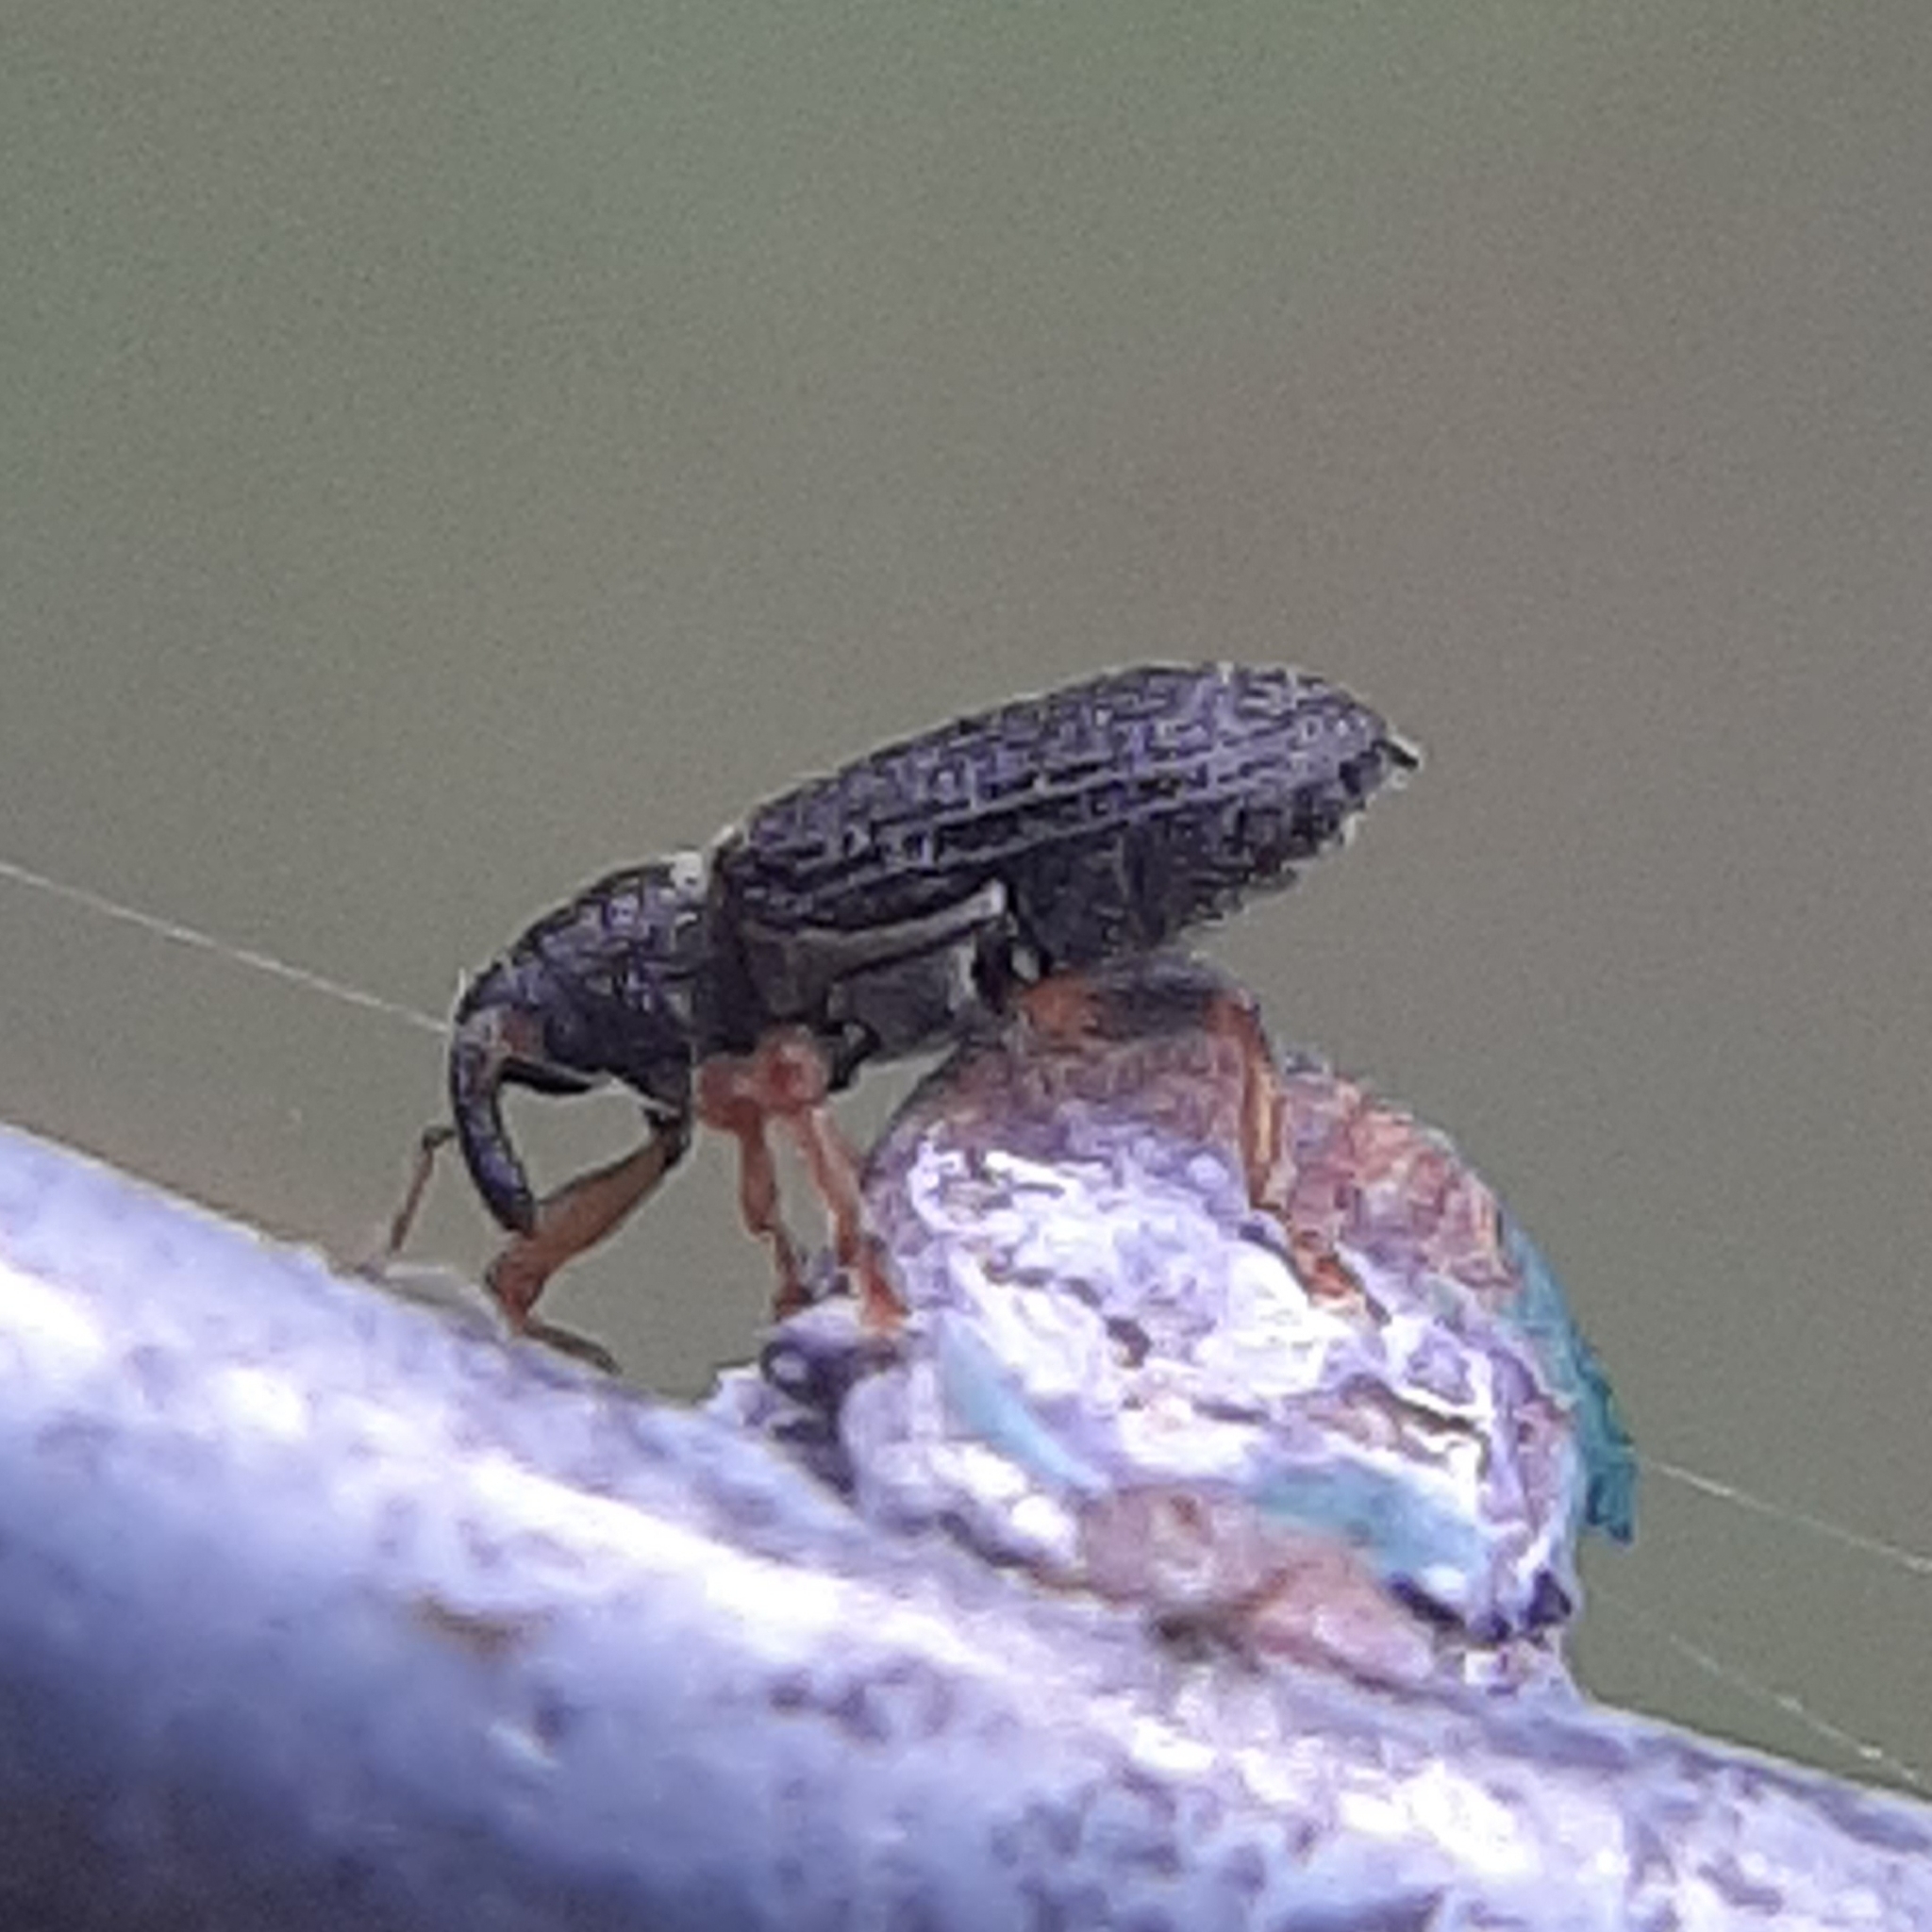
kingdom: Animalia
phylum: Arthropoda
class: Insecta
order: Coleoptera
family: Curculionidae
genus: Isochnus
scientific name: Isochnus sequensi
